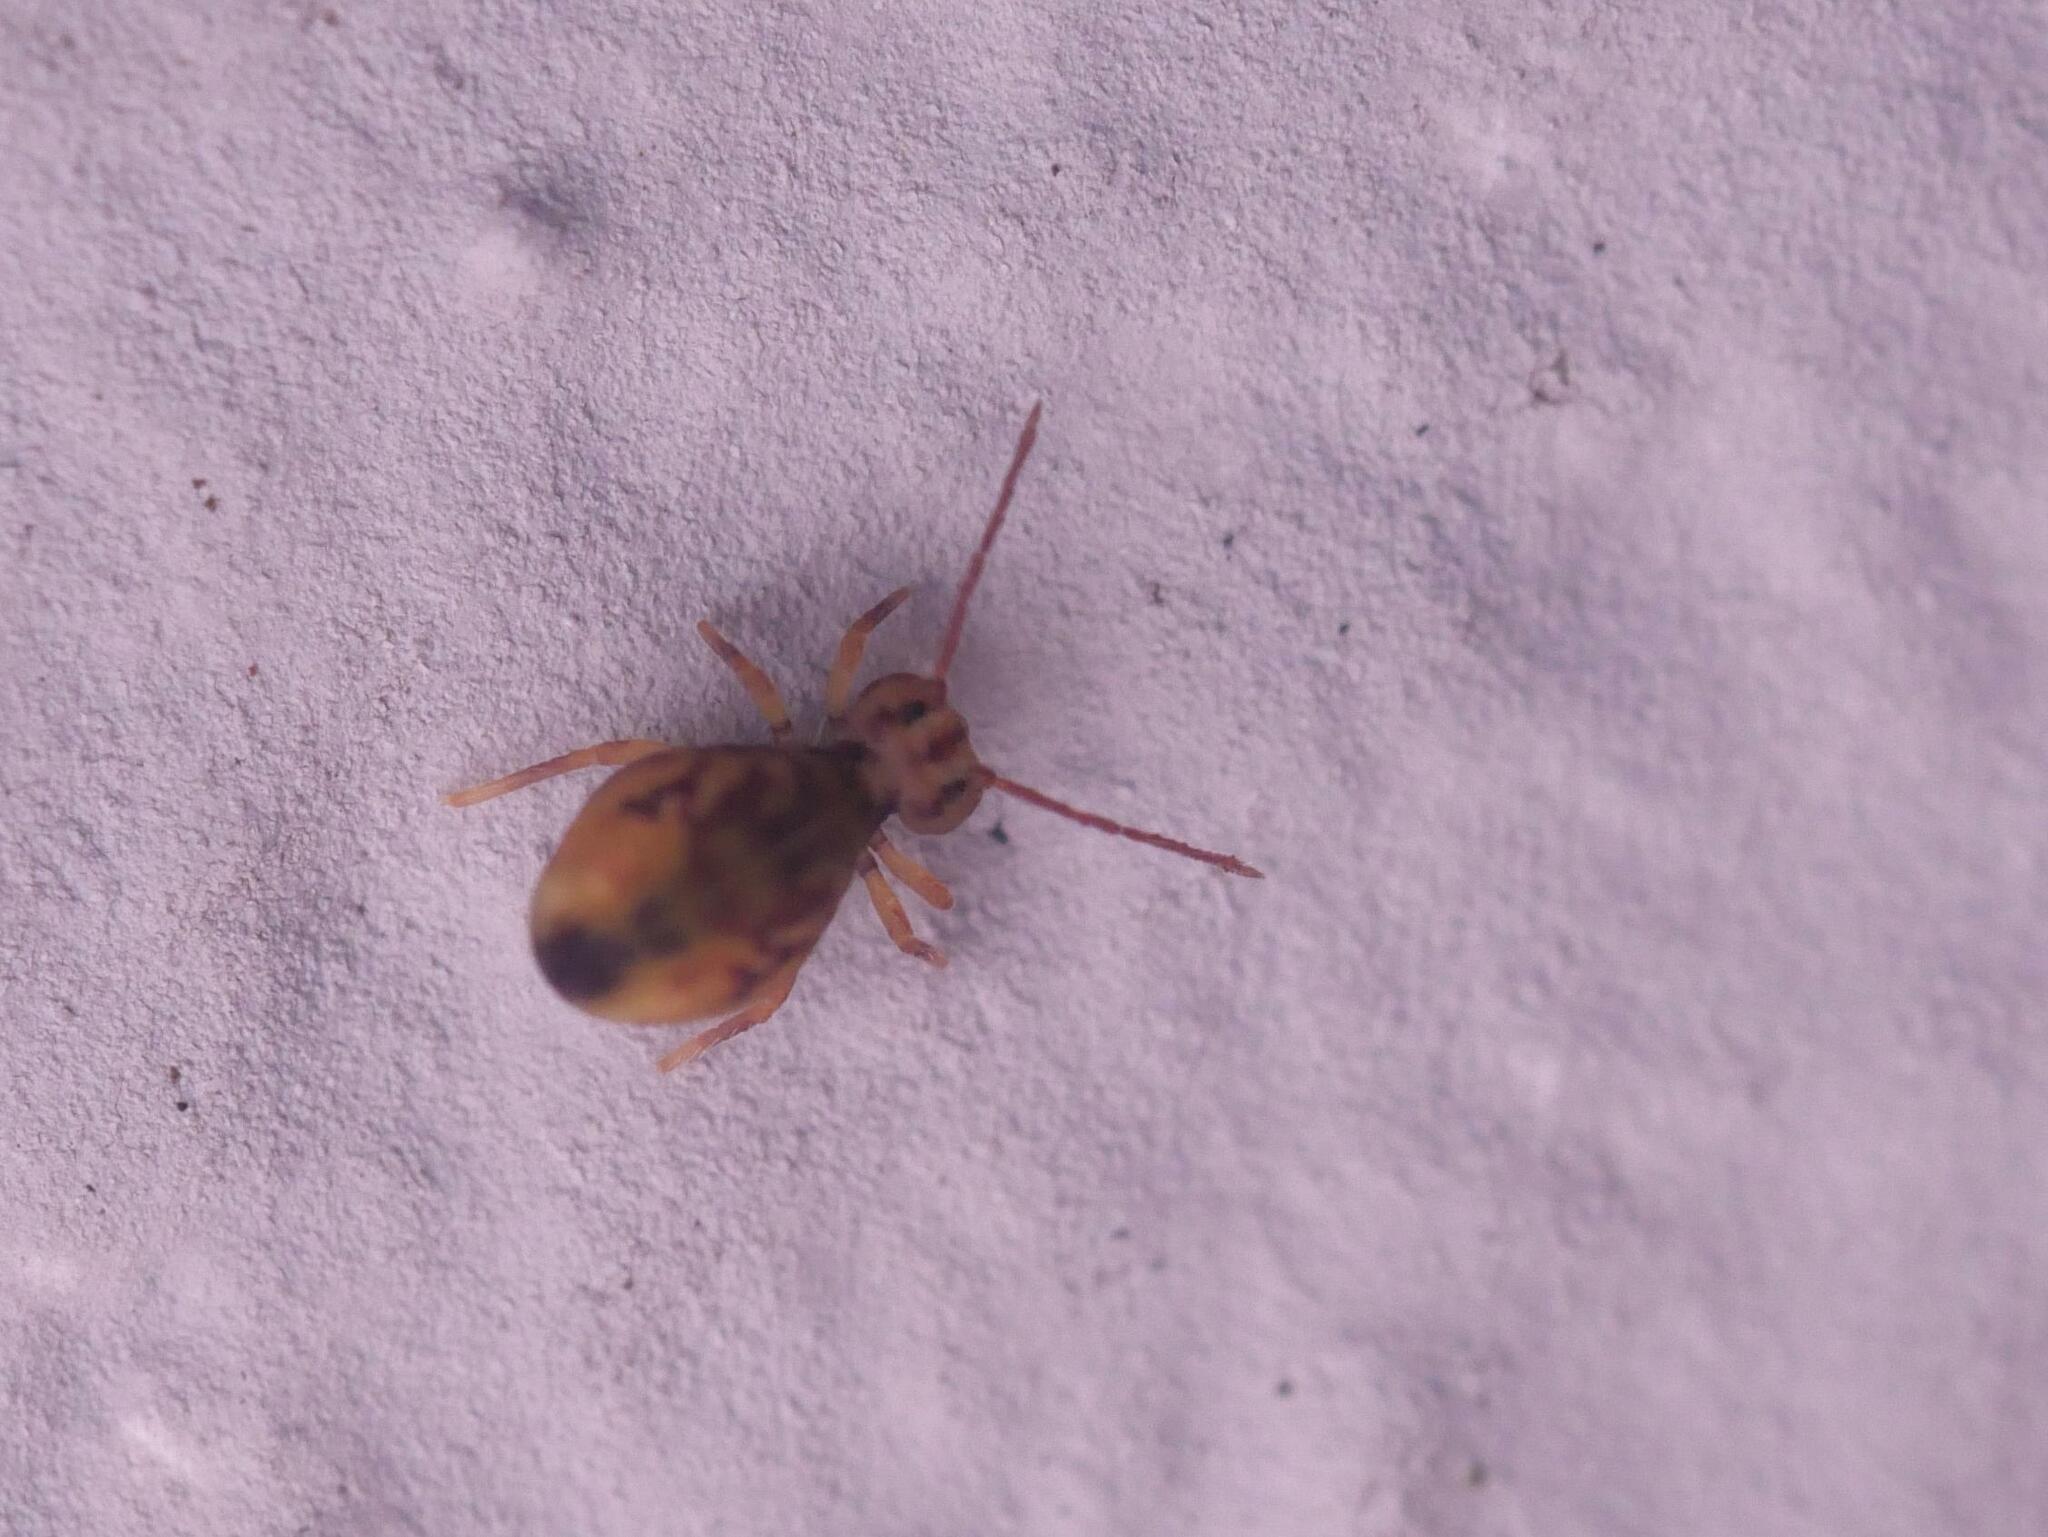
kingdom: Animalia
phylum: Arthropoda
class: Collembola
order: Symphypleona
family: Dicyrtomidae
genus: Dicyrtomina
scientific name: Dicyrtomina ornata
